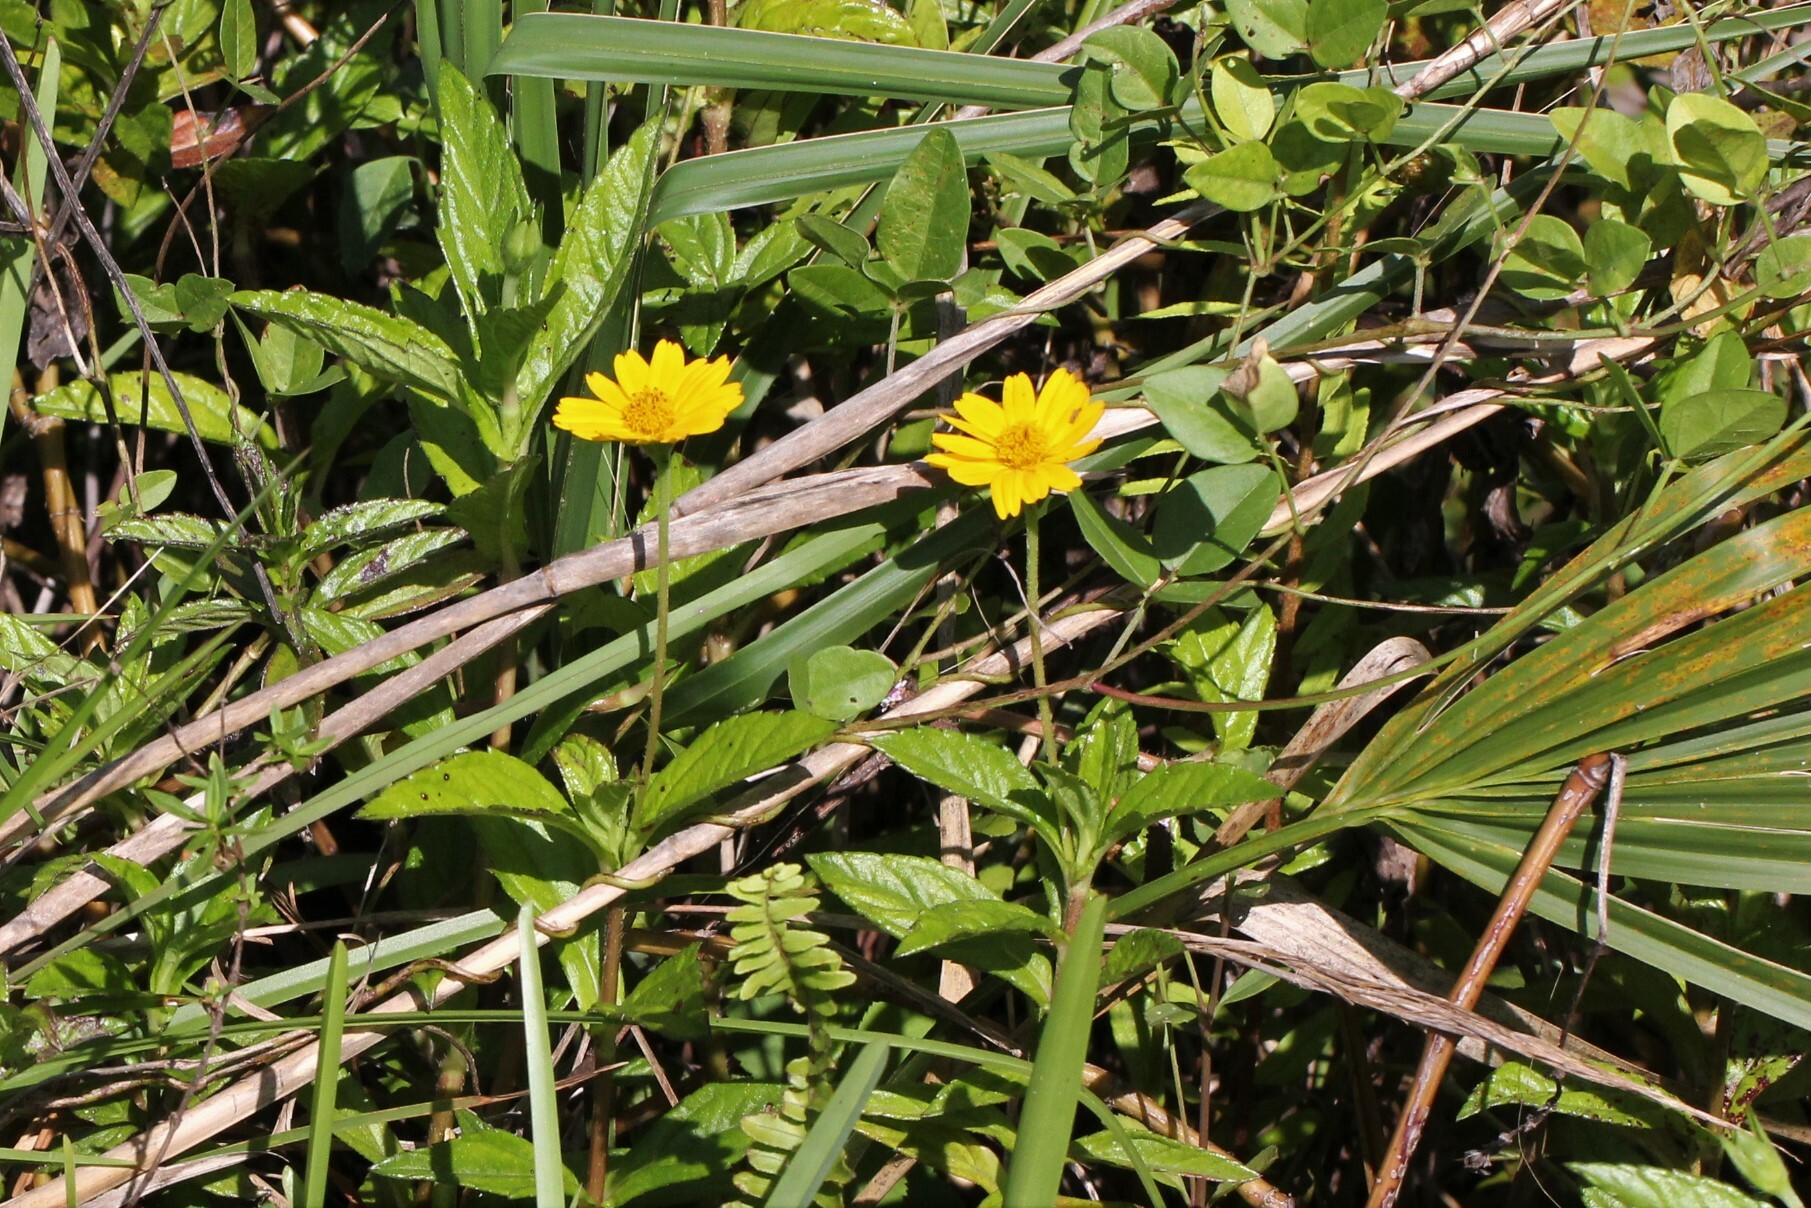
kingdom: Plantae
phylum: Tracheophyta
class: Magnoliopsida
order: Asterales
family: Asteraceae
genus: Sphagneticola
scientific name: Sphagneticola trilobata
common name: Bay biscayne creeping-oxeye
